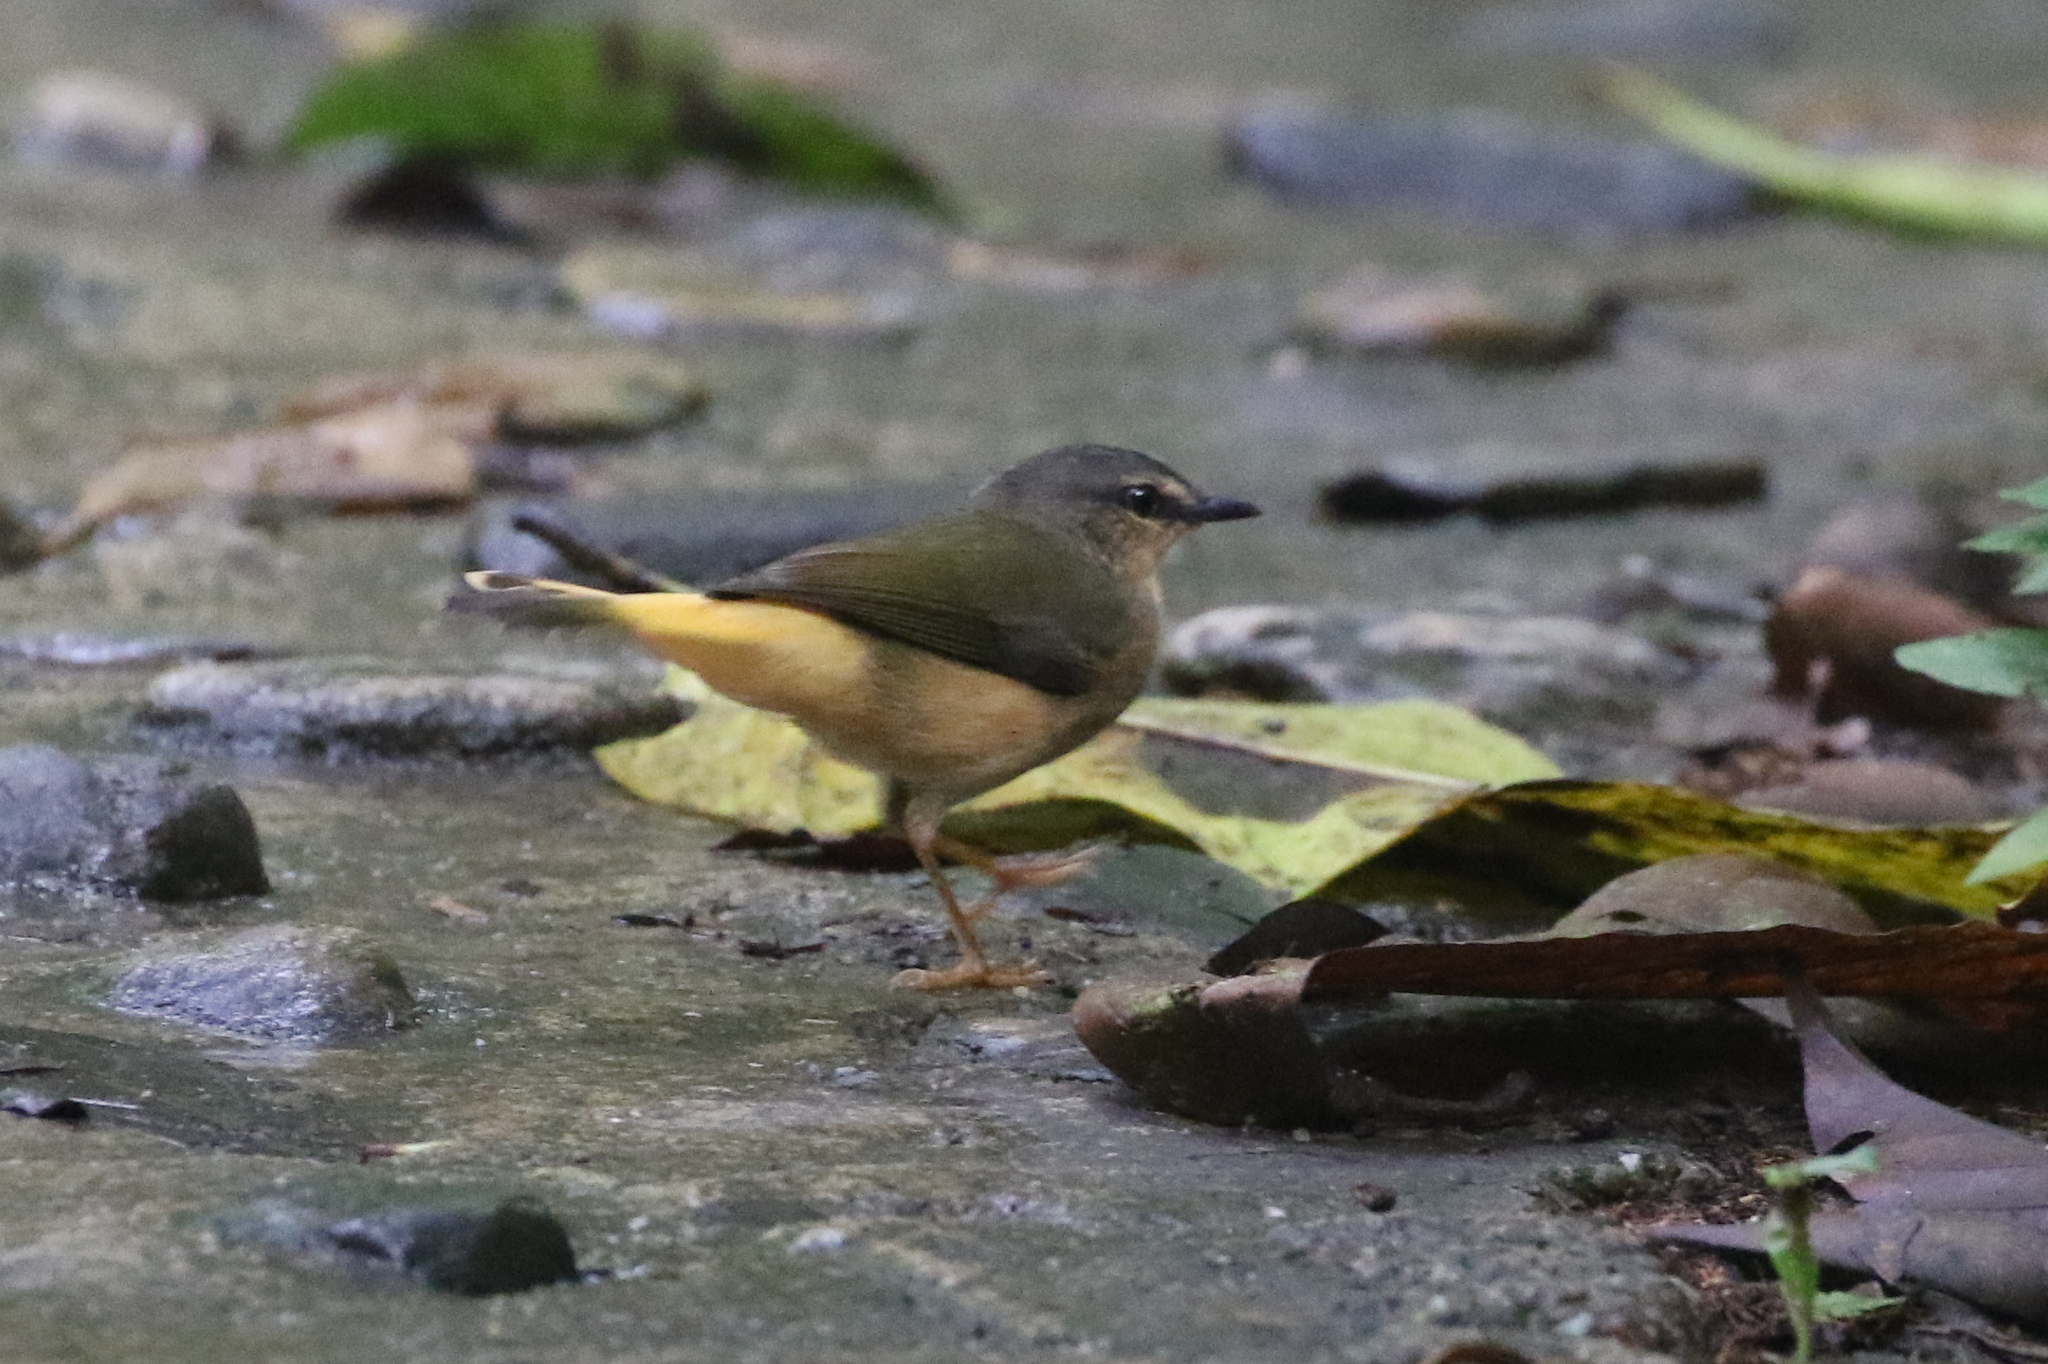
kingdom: Animalia
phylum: Chordata
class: Aves
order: Passeriformes
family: Parulidae
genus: Myiothlypis
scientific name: Myiothlypis fulvicauda
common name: Buff-rumped warbler
